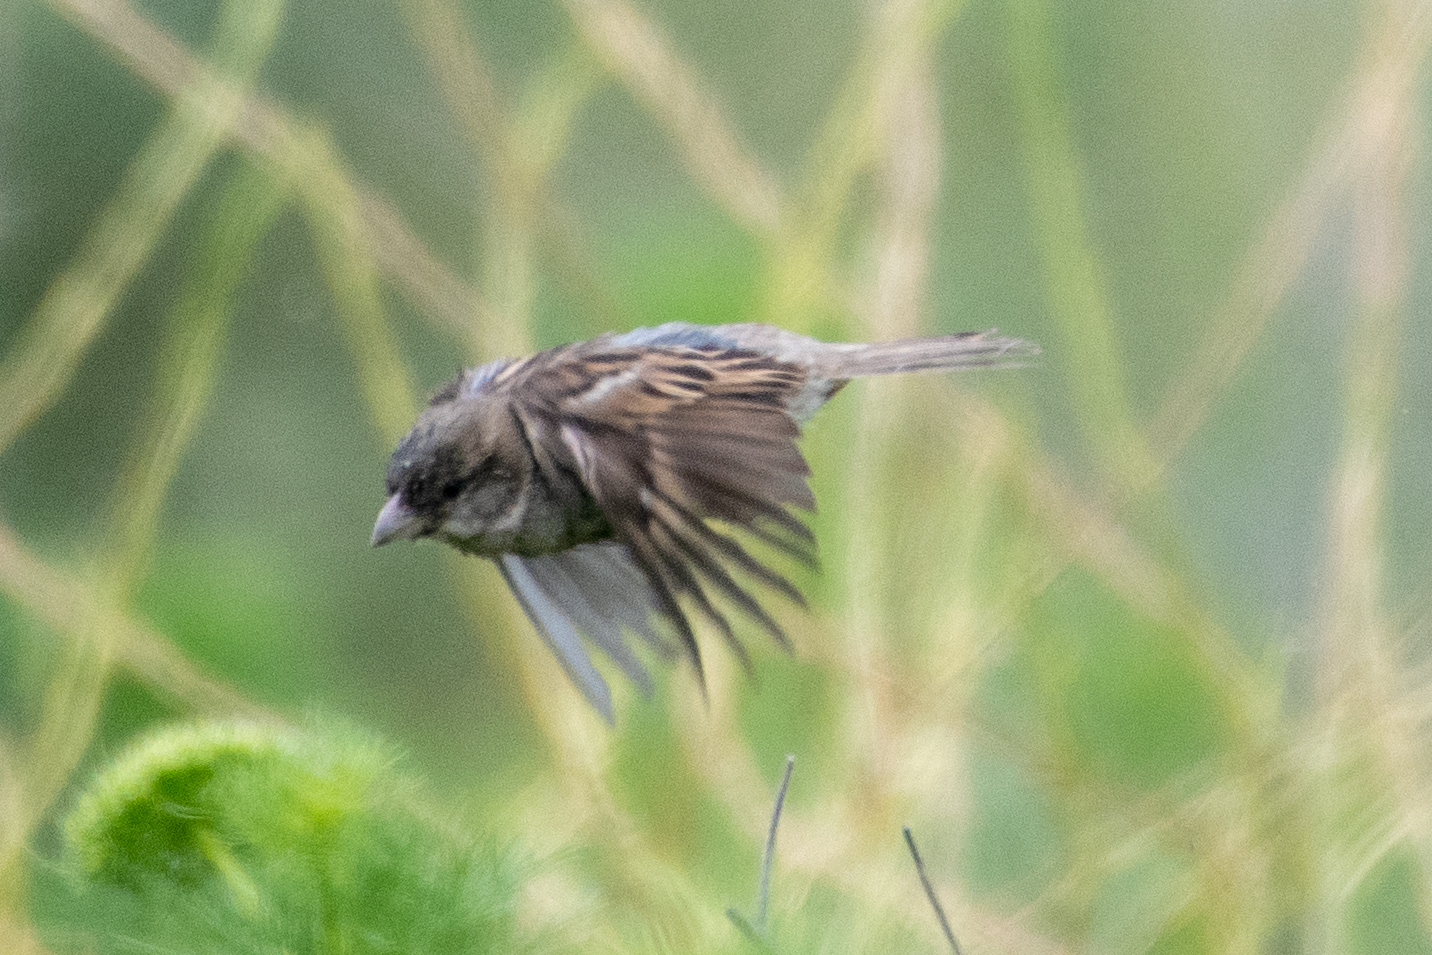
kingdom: Animalia
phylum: Chordata
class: Aves
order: Passeriformes
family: Passeridae
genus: Passer
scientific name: Passer domesticus
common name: House sparrow
